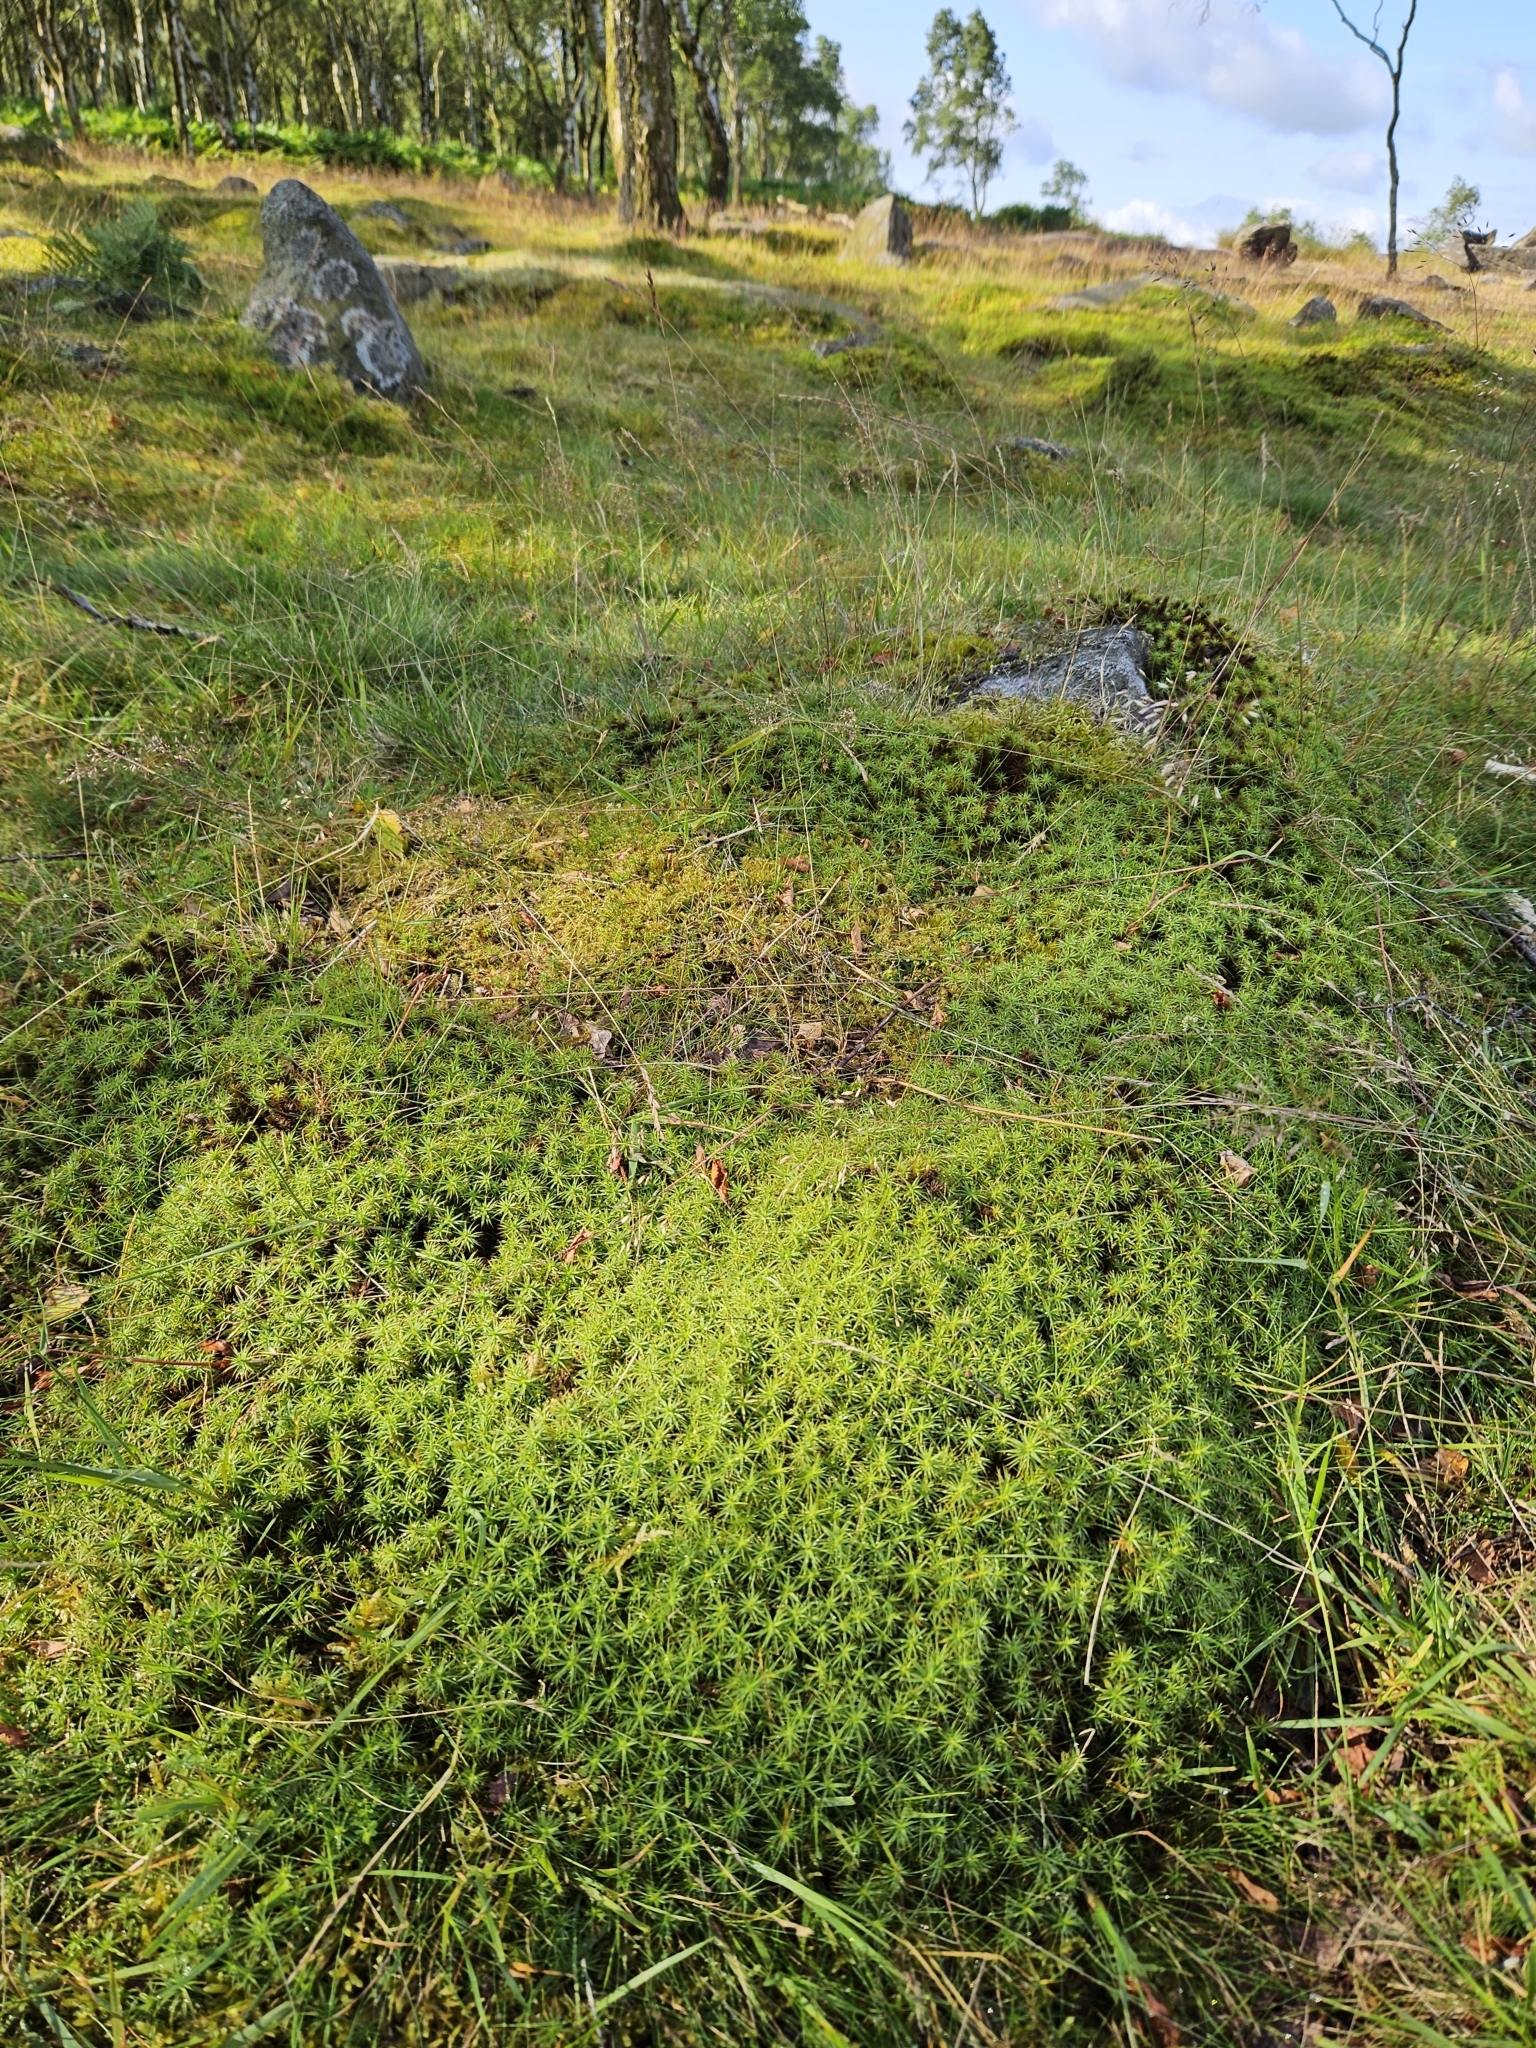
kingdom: Plantae
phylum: Bryophyta
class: Polytrichopsida
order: Polytrichales
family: Polytrichaceae
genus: Polytrichum
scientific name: Polytrichum commune
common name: Common haircap
